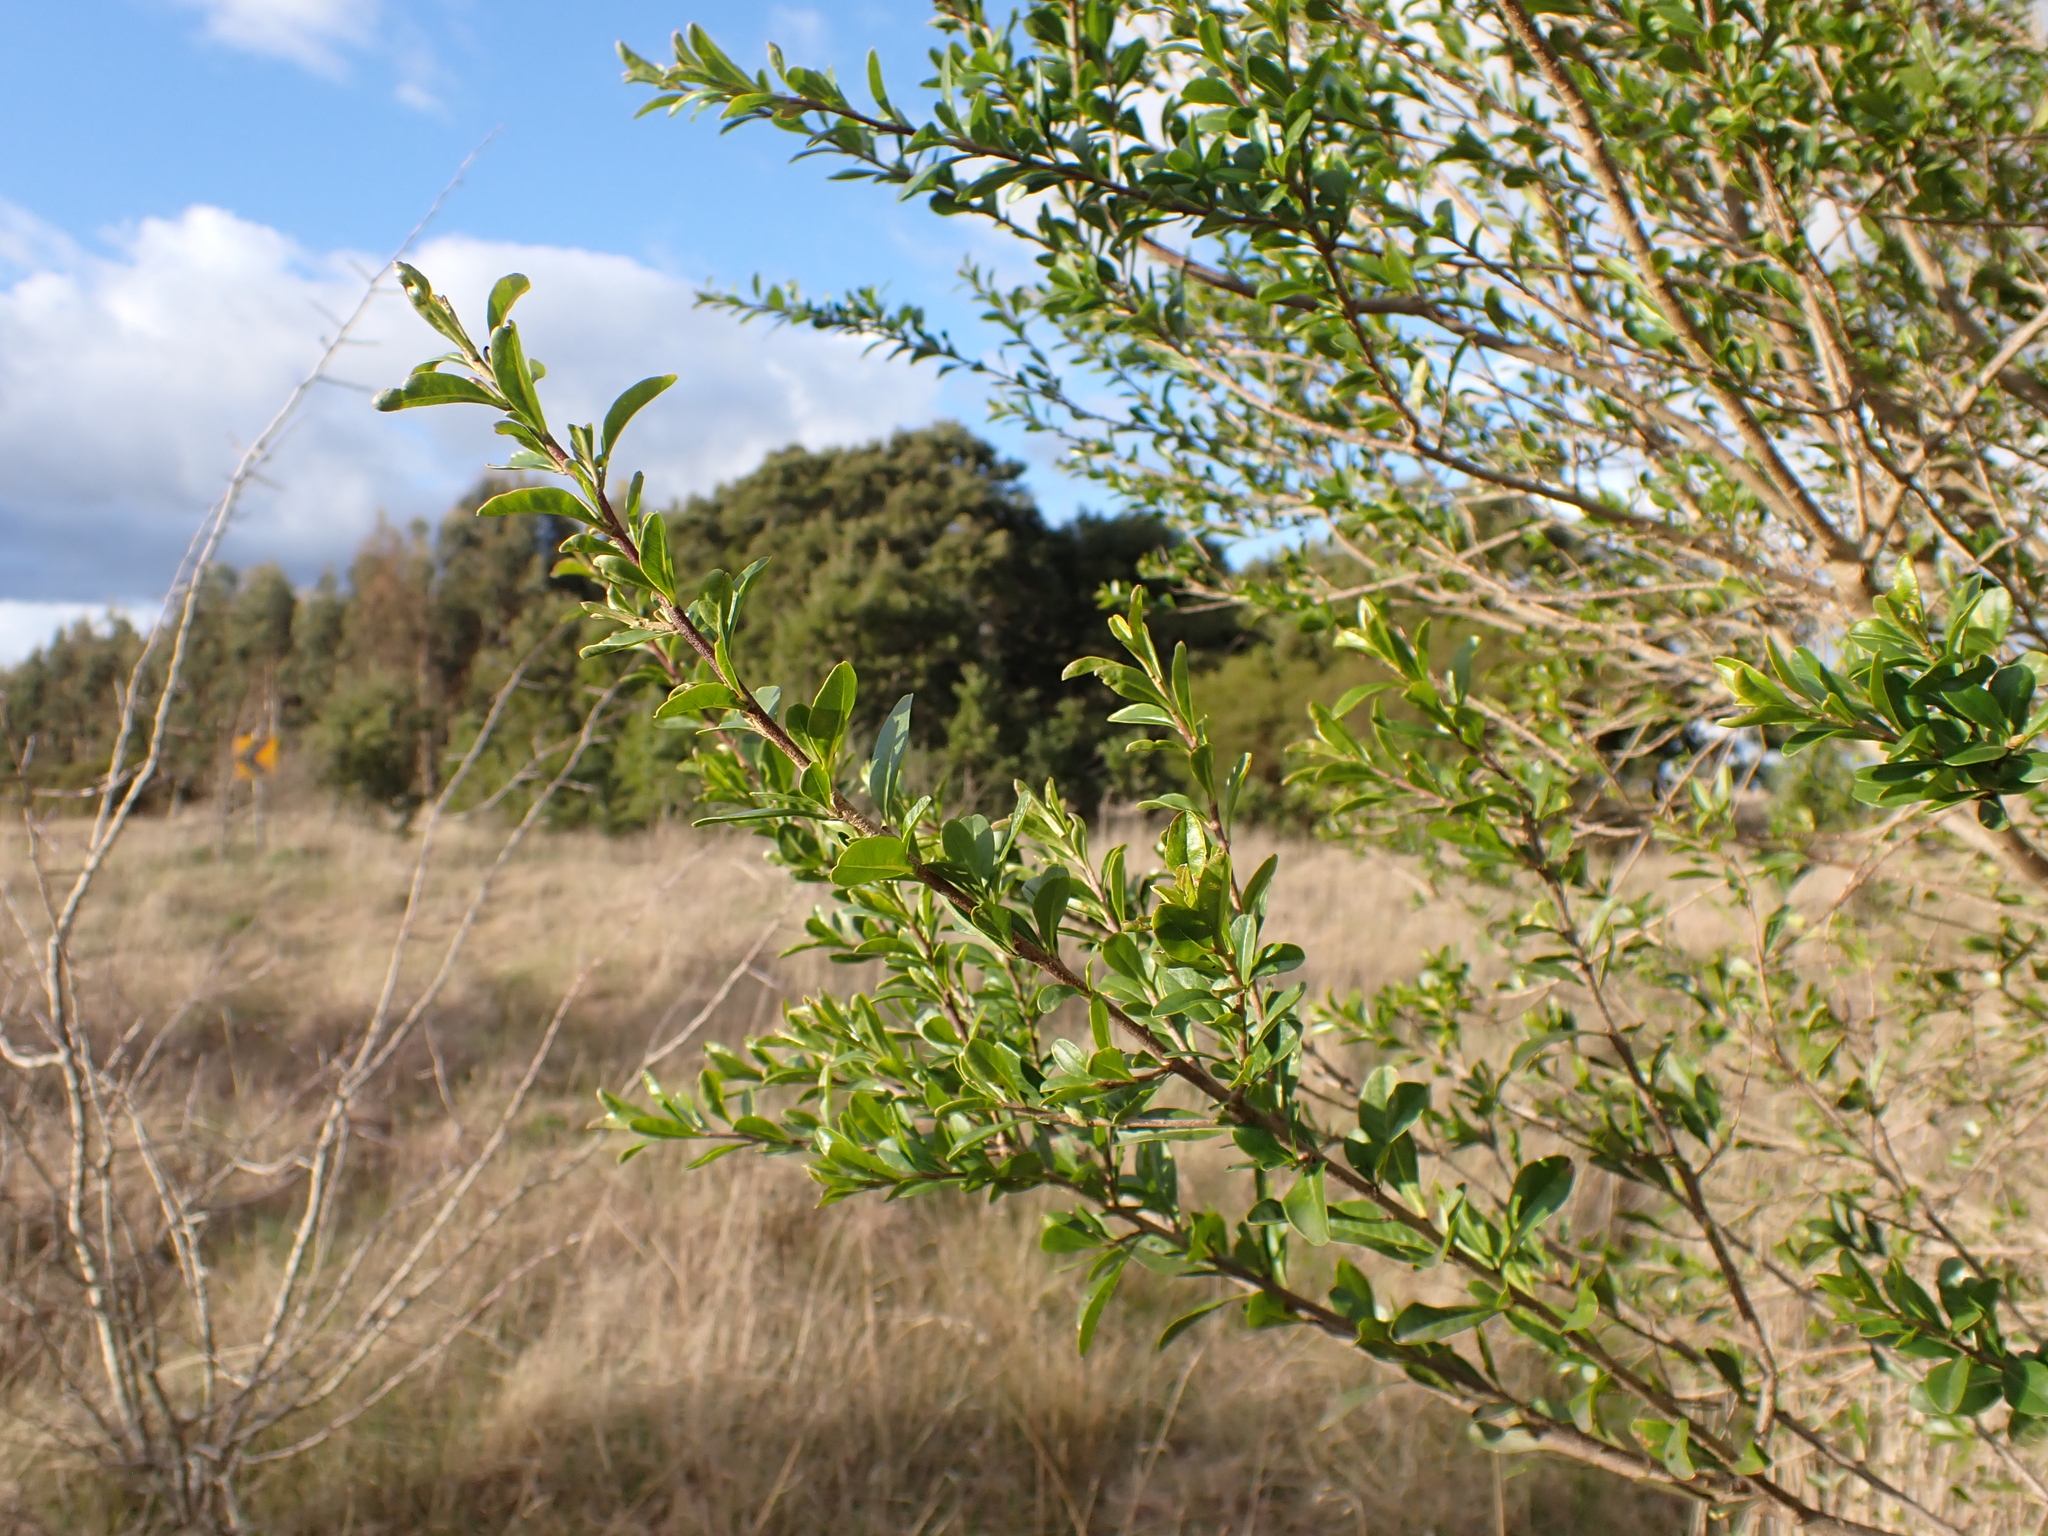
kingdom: Plantae
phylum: Tracheophyta
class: Magnoliopsida
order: Apiales
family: Pittosporaceae
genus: Bursaria
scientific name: Bursaria spinosa
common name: Australian blackthorn
